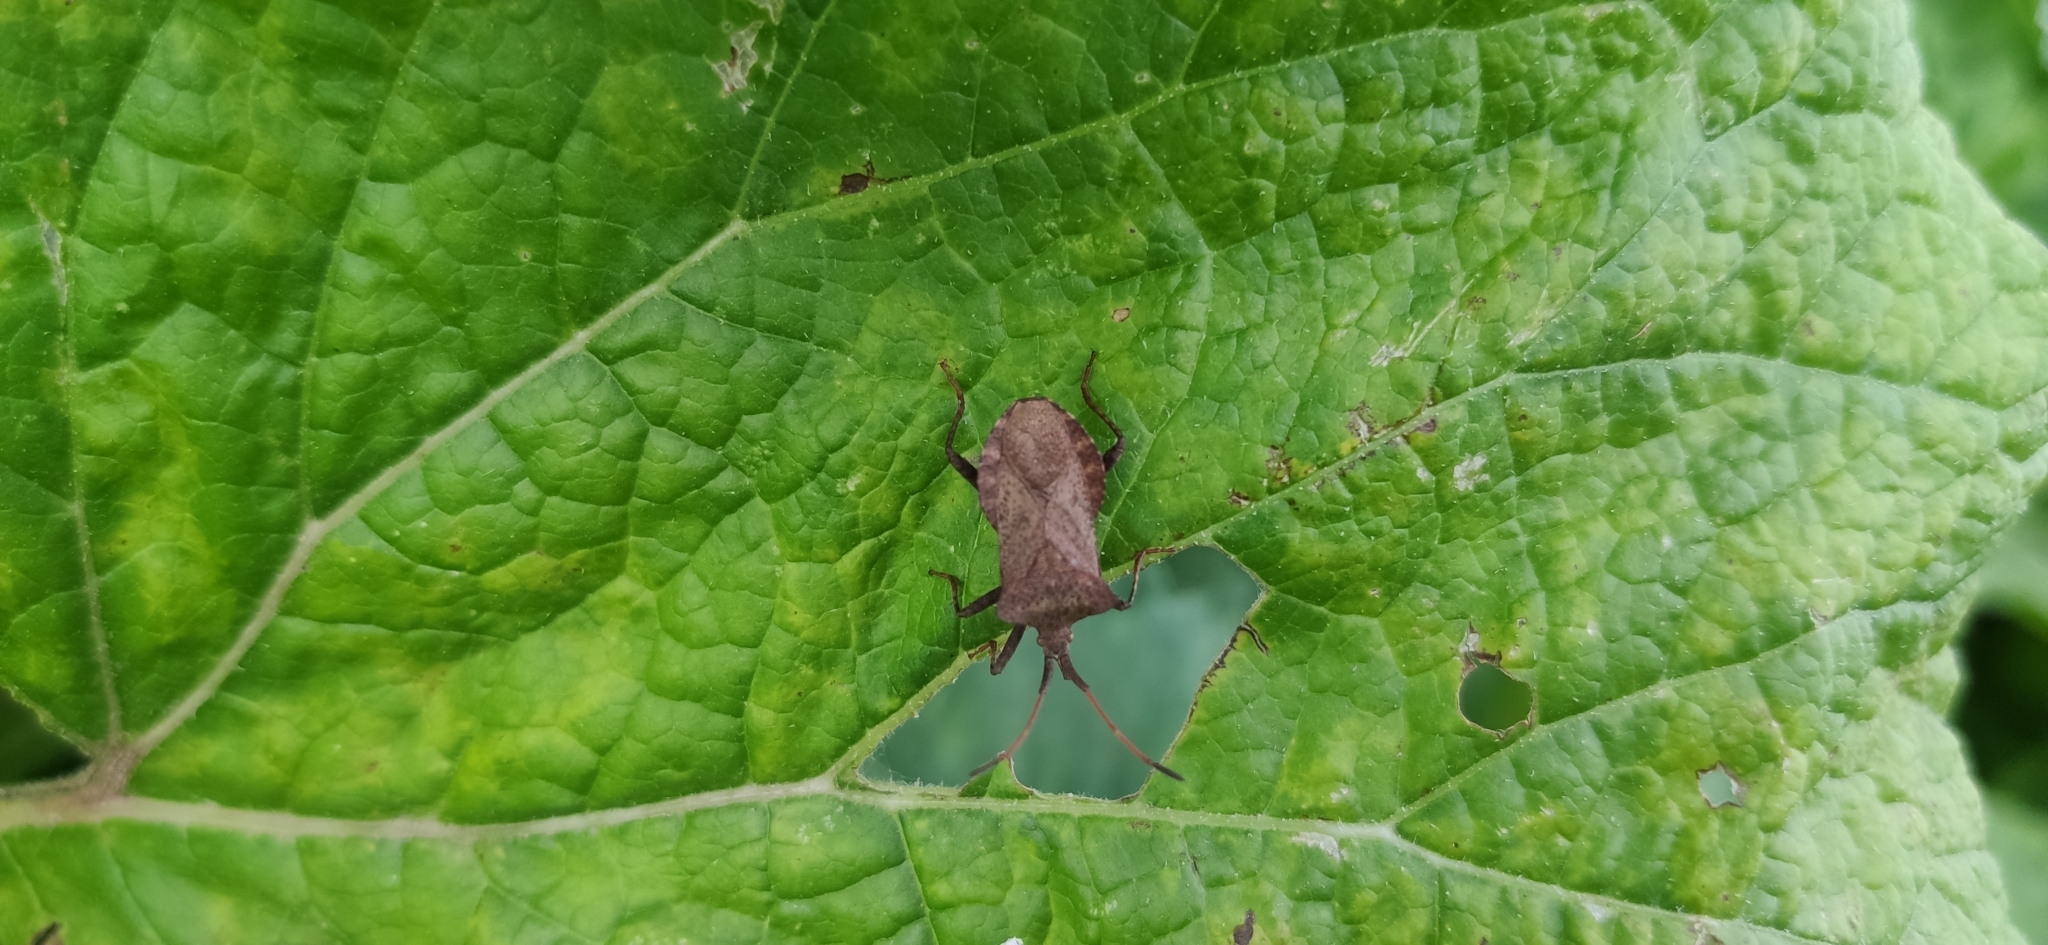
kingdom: Animalia
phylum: Arthropoda
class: Insecta
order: Hemiptera
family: Coreidae
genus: Coreus
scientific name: Coreus marginatus
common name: Dock bug
